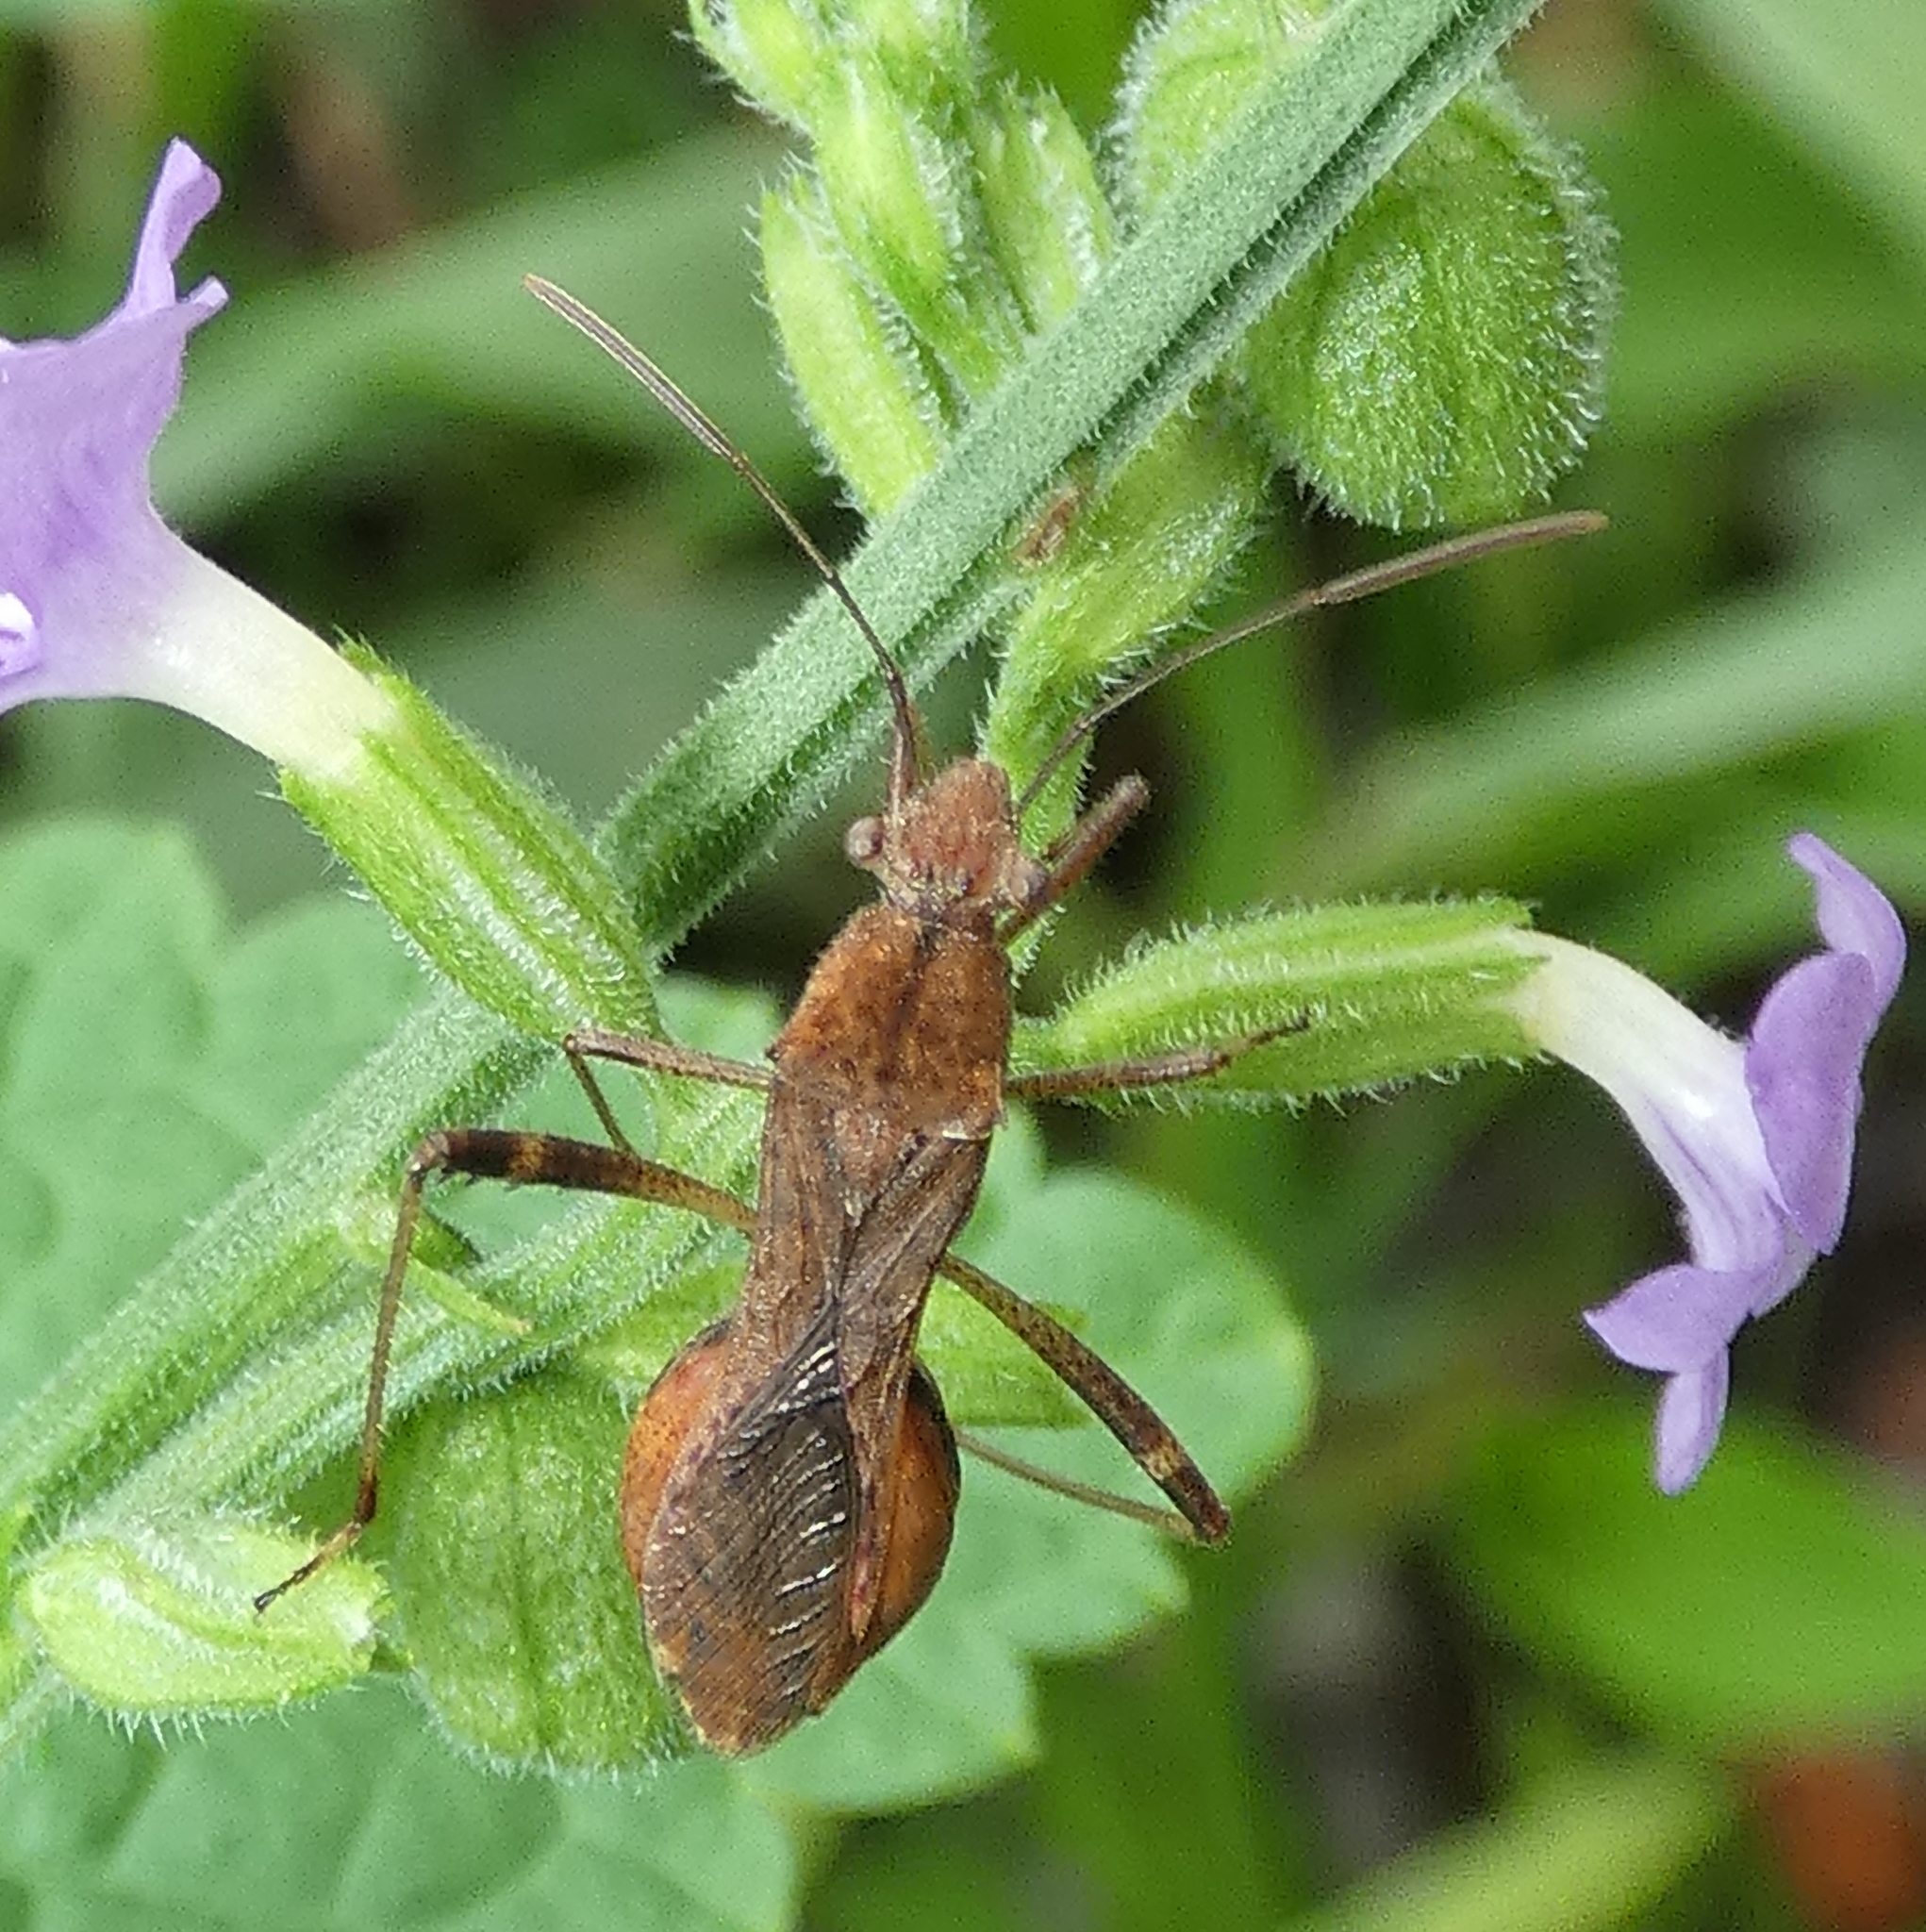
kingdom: Animalia
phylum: Arthropoda
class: Insecta
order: Hemiptera
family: Alydidae
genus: Neomegalotomus
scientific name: Neomegalotomus parvus
